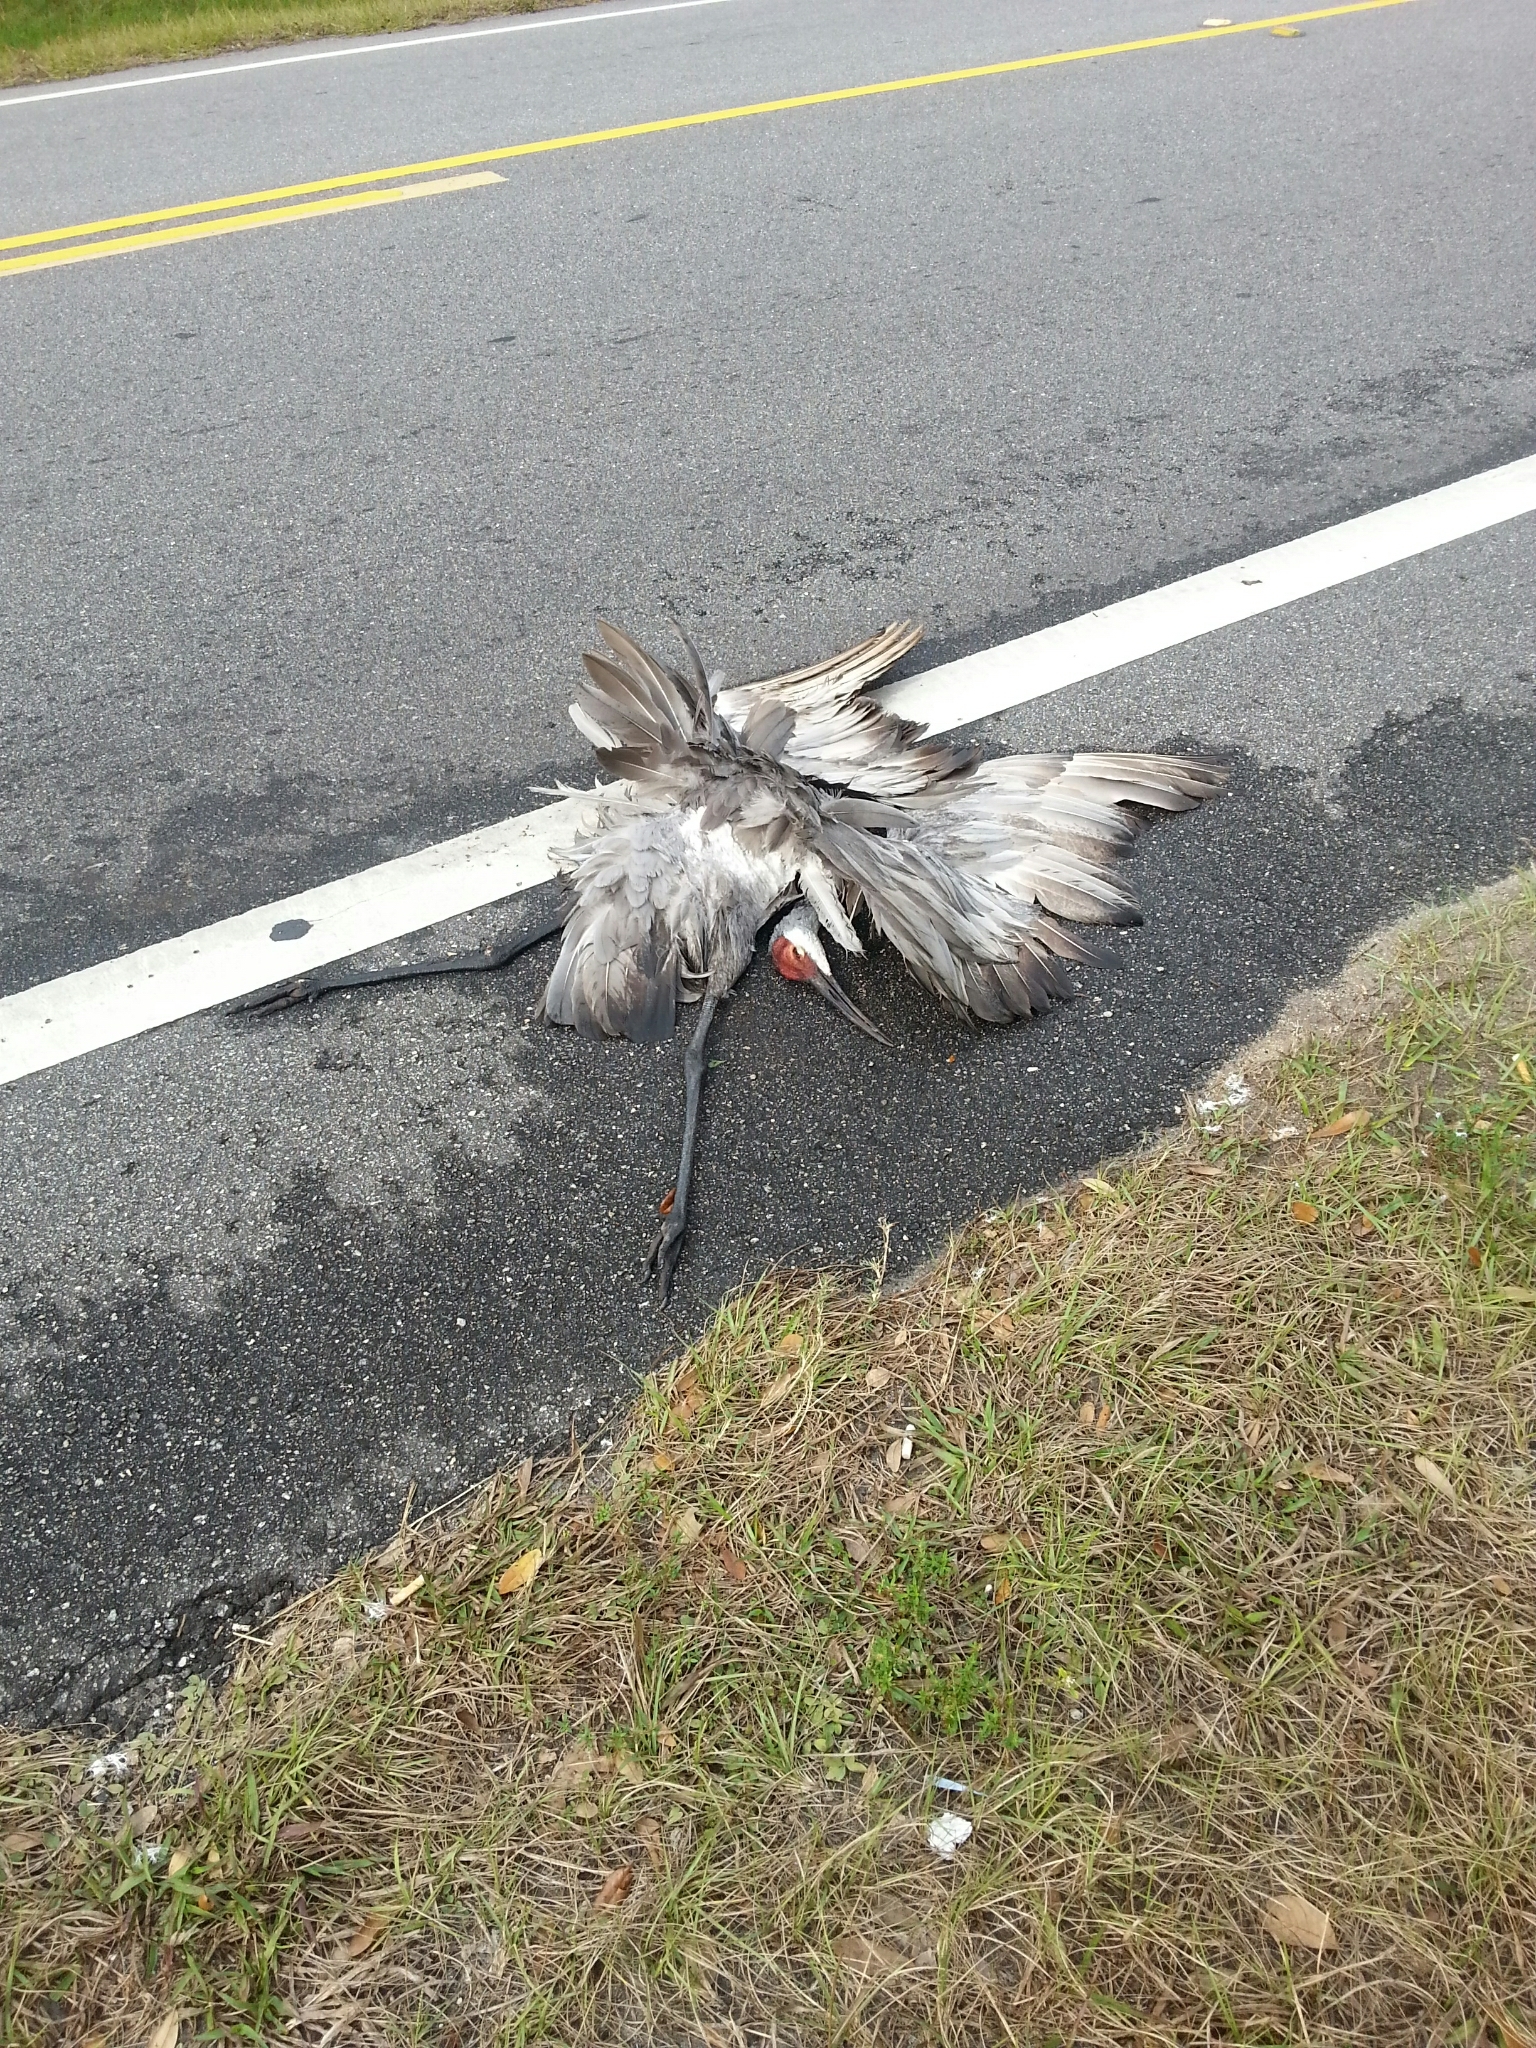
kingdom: Animalia
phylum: Chordata
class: Aves
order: Gruiformes
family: Gruidae
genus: Grus
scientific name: Grus canadensis
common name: Sandhill crane
